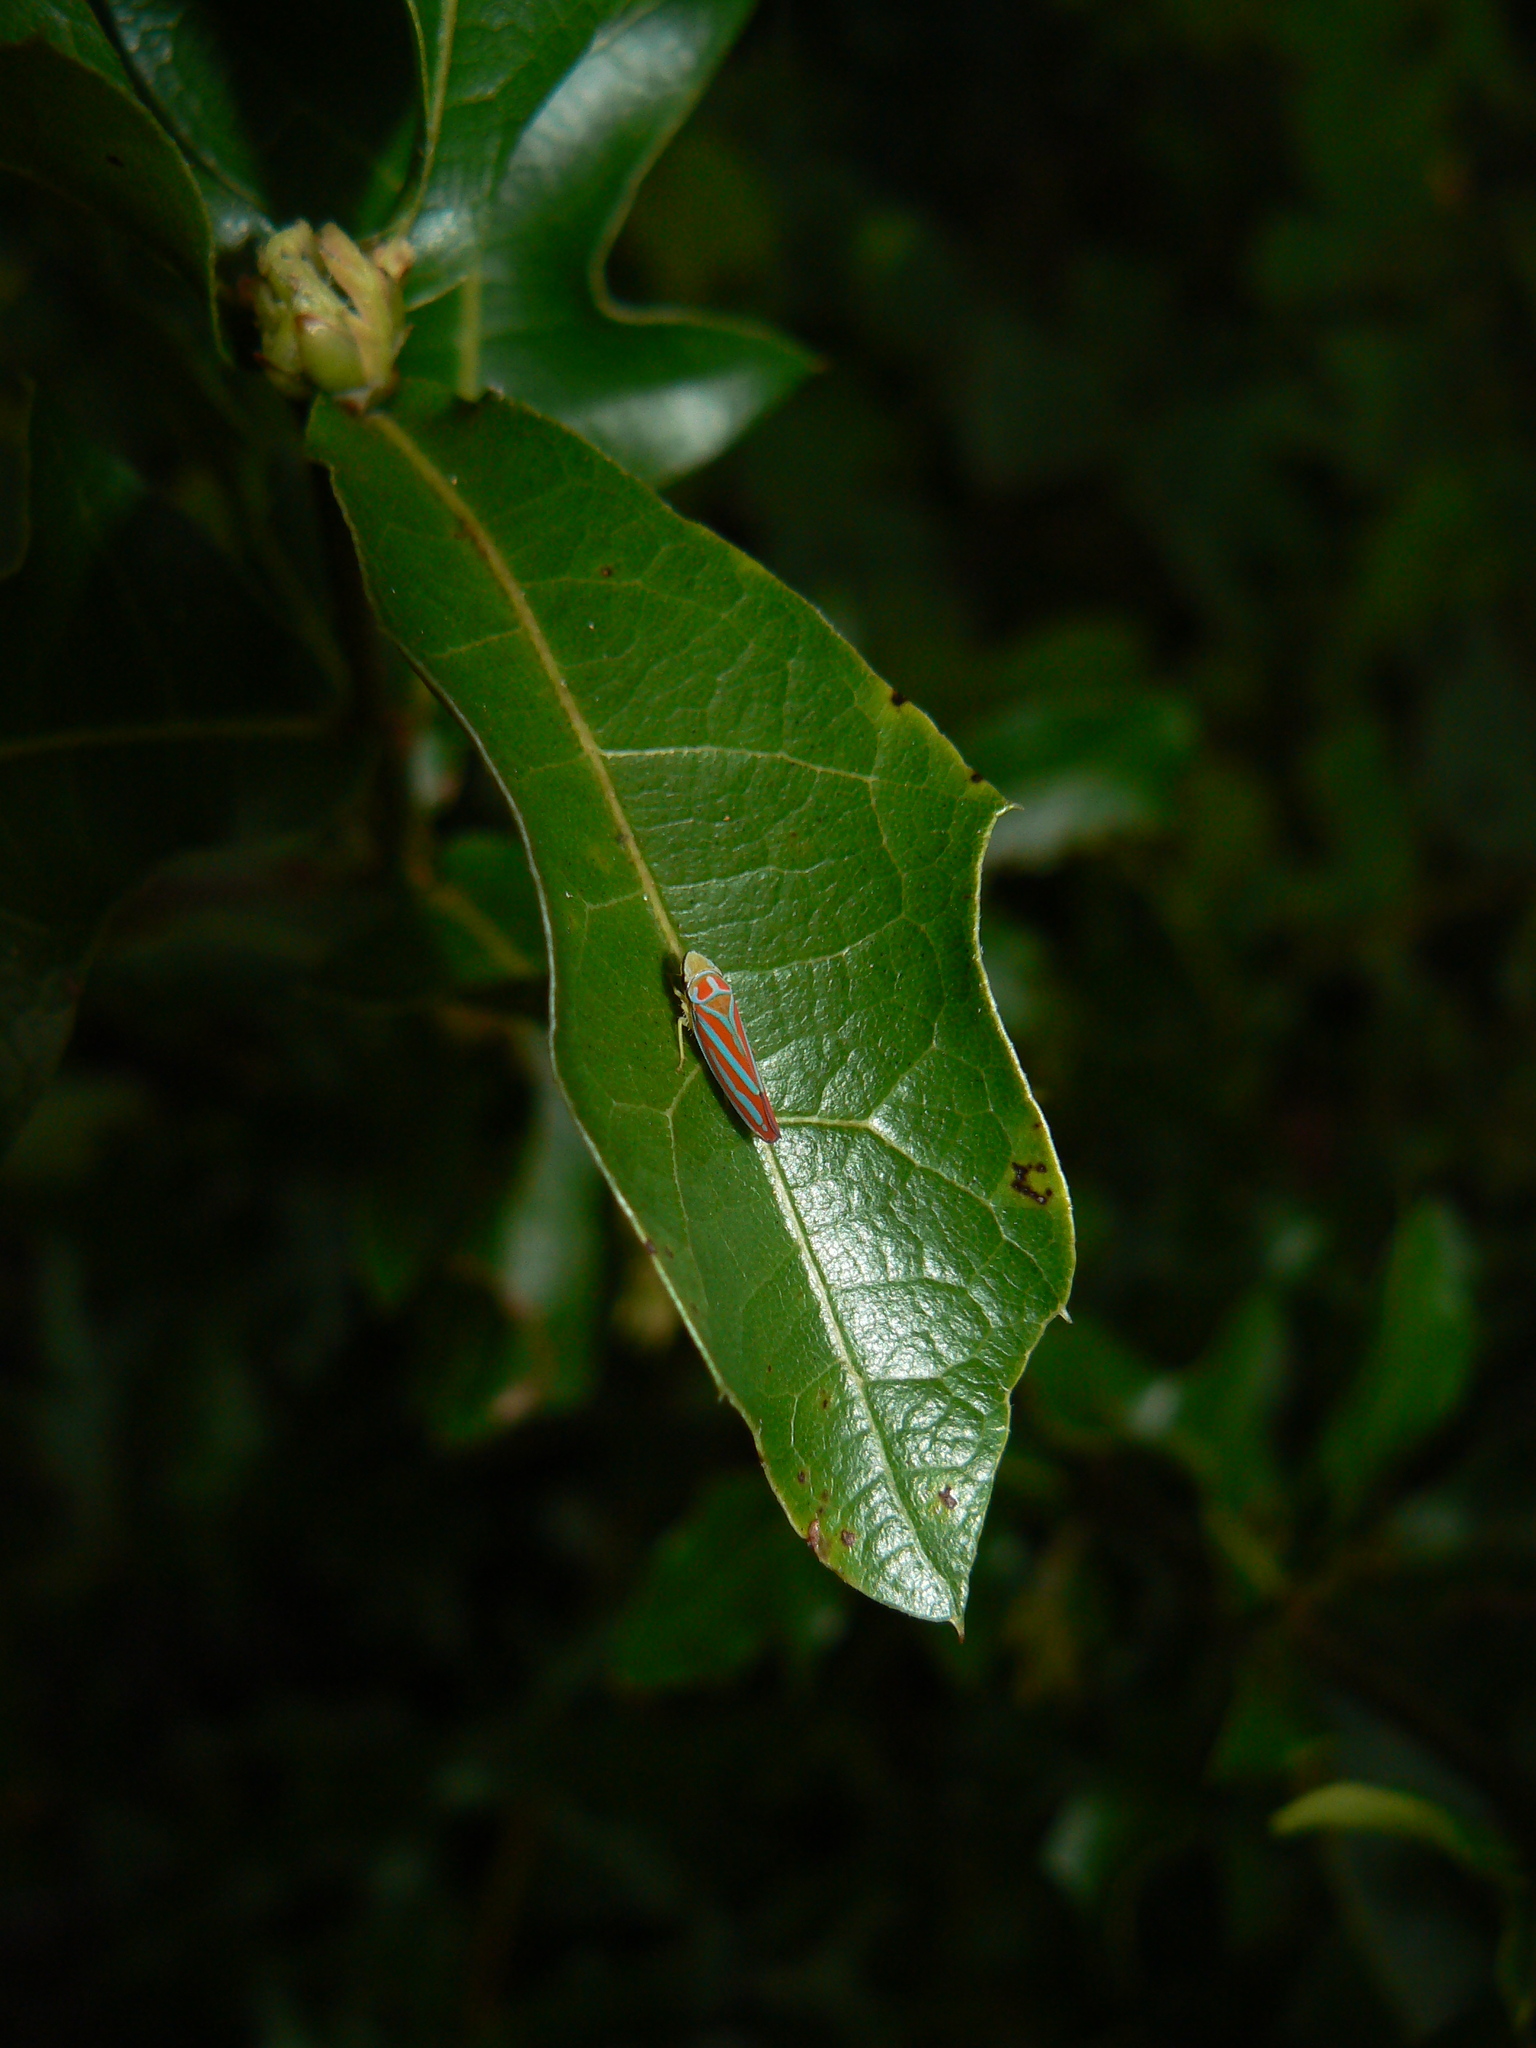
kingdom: Animalia
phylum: Arthropoda
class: Insecta
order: Hemiptera
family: Cicadellidae
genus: Graphocephala
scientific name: Graphocephala coccinea
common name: Candy-striped leafhopper
